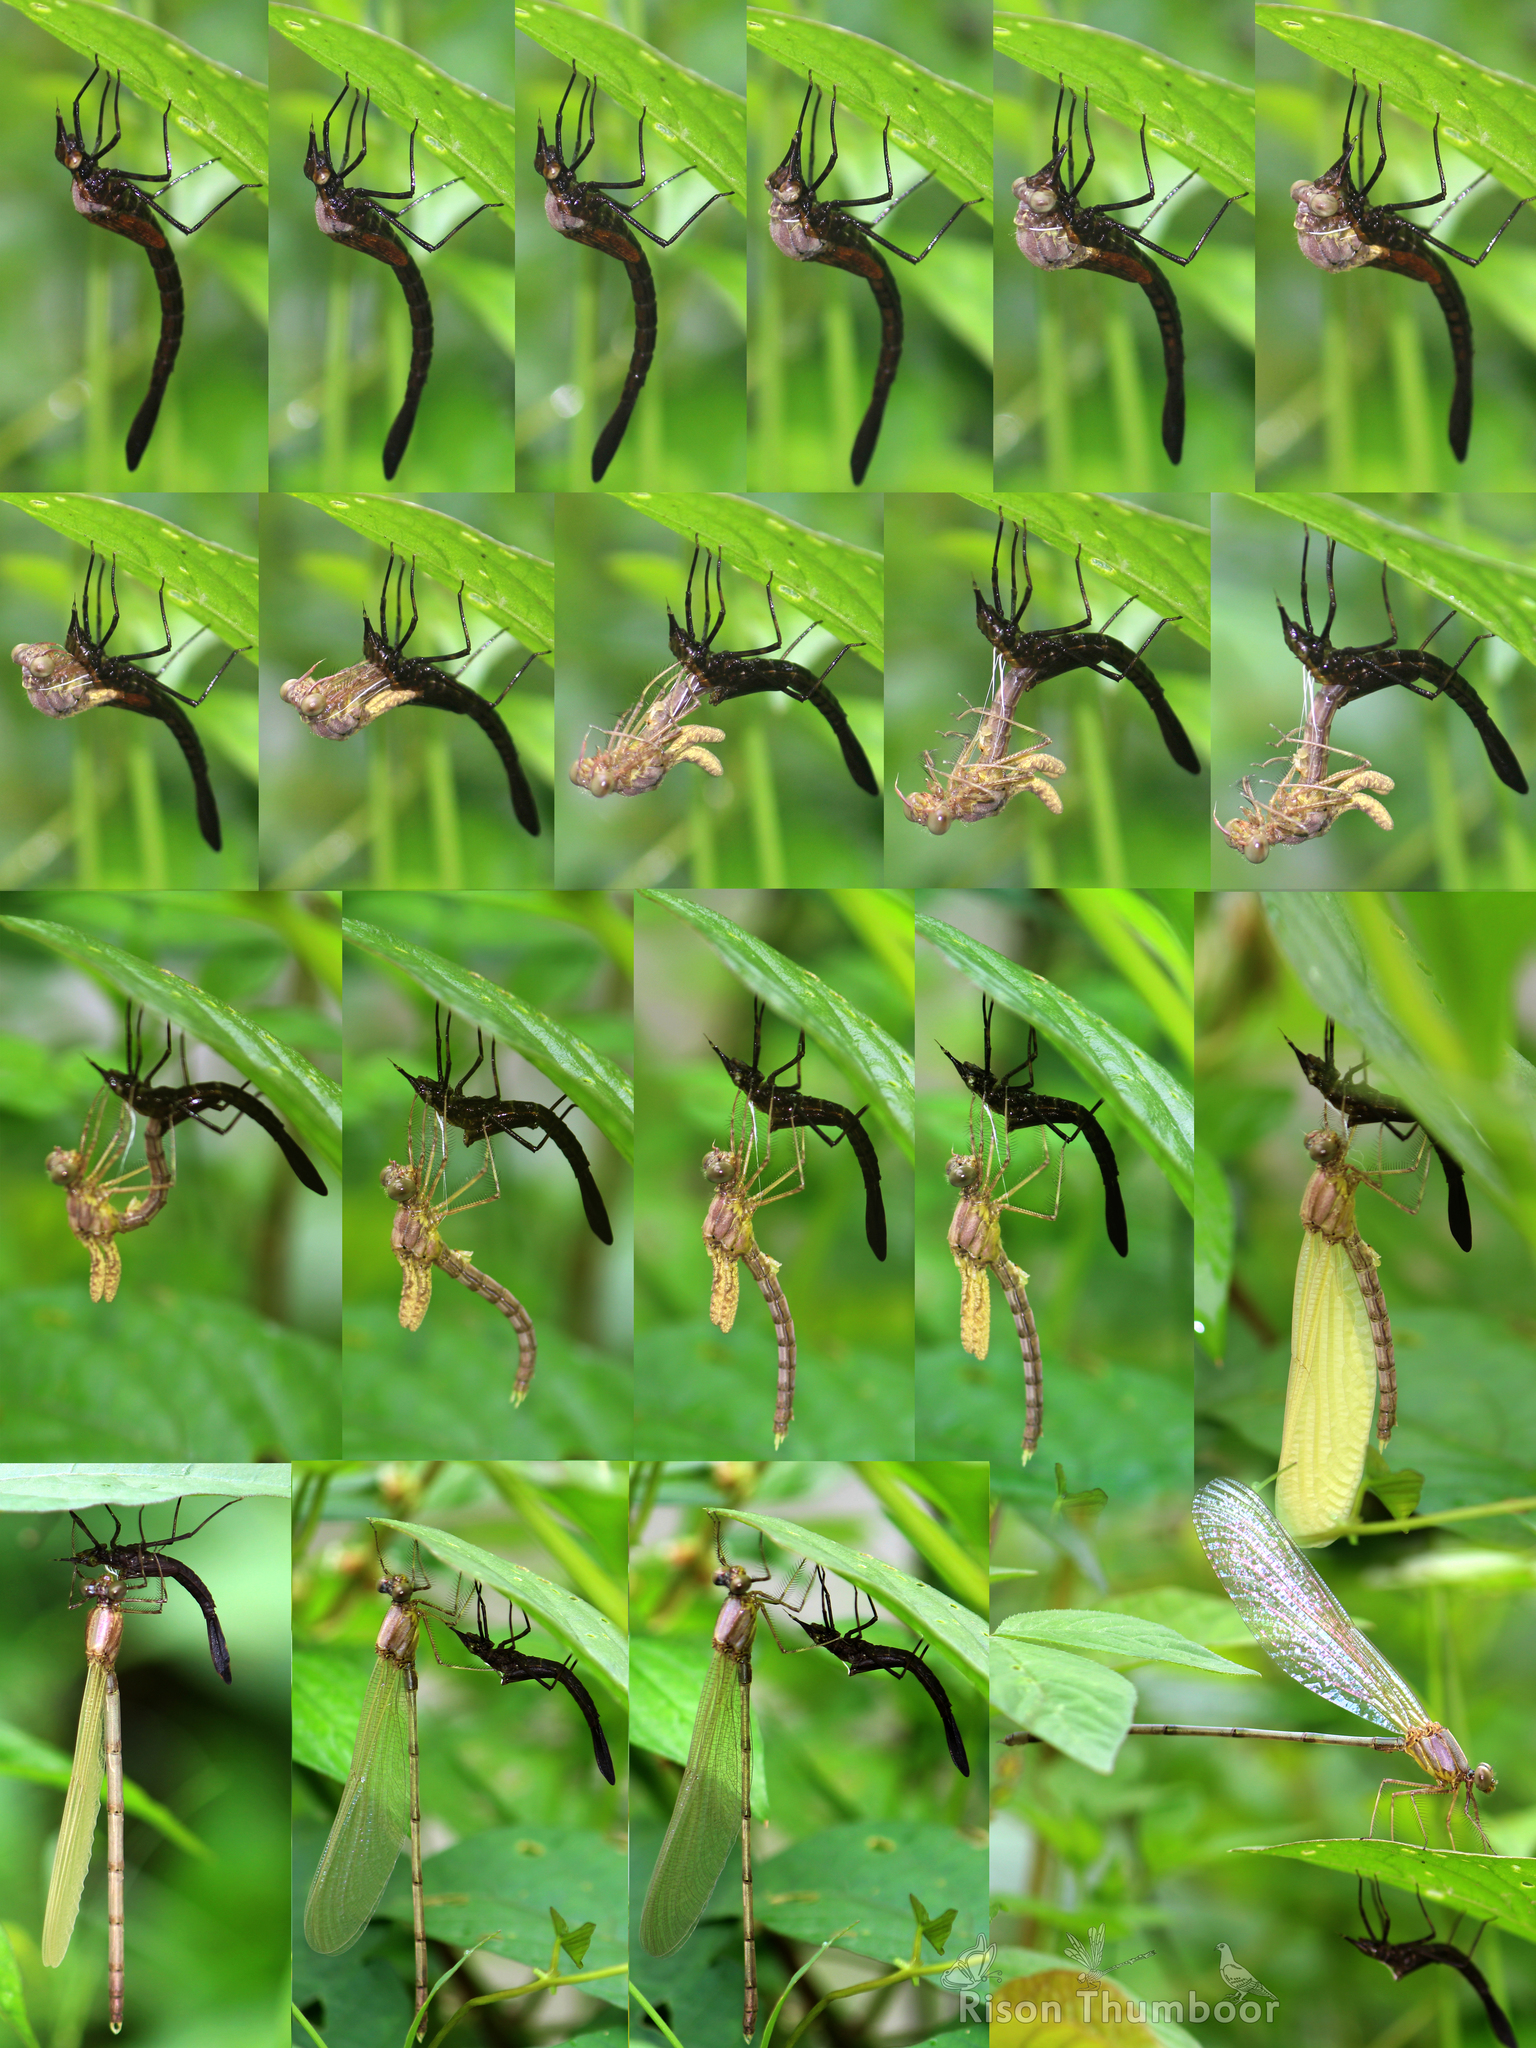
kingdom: Animalia
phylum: Arthropoda
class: Insecta
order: Odonata
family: Calopterygidae
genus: Vestalis
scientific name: Vestalis apicalis
